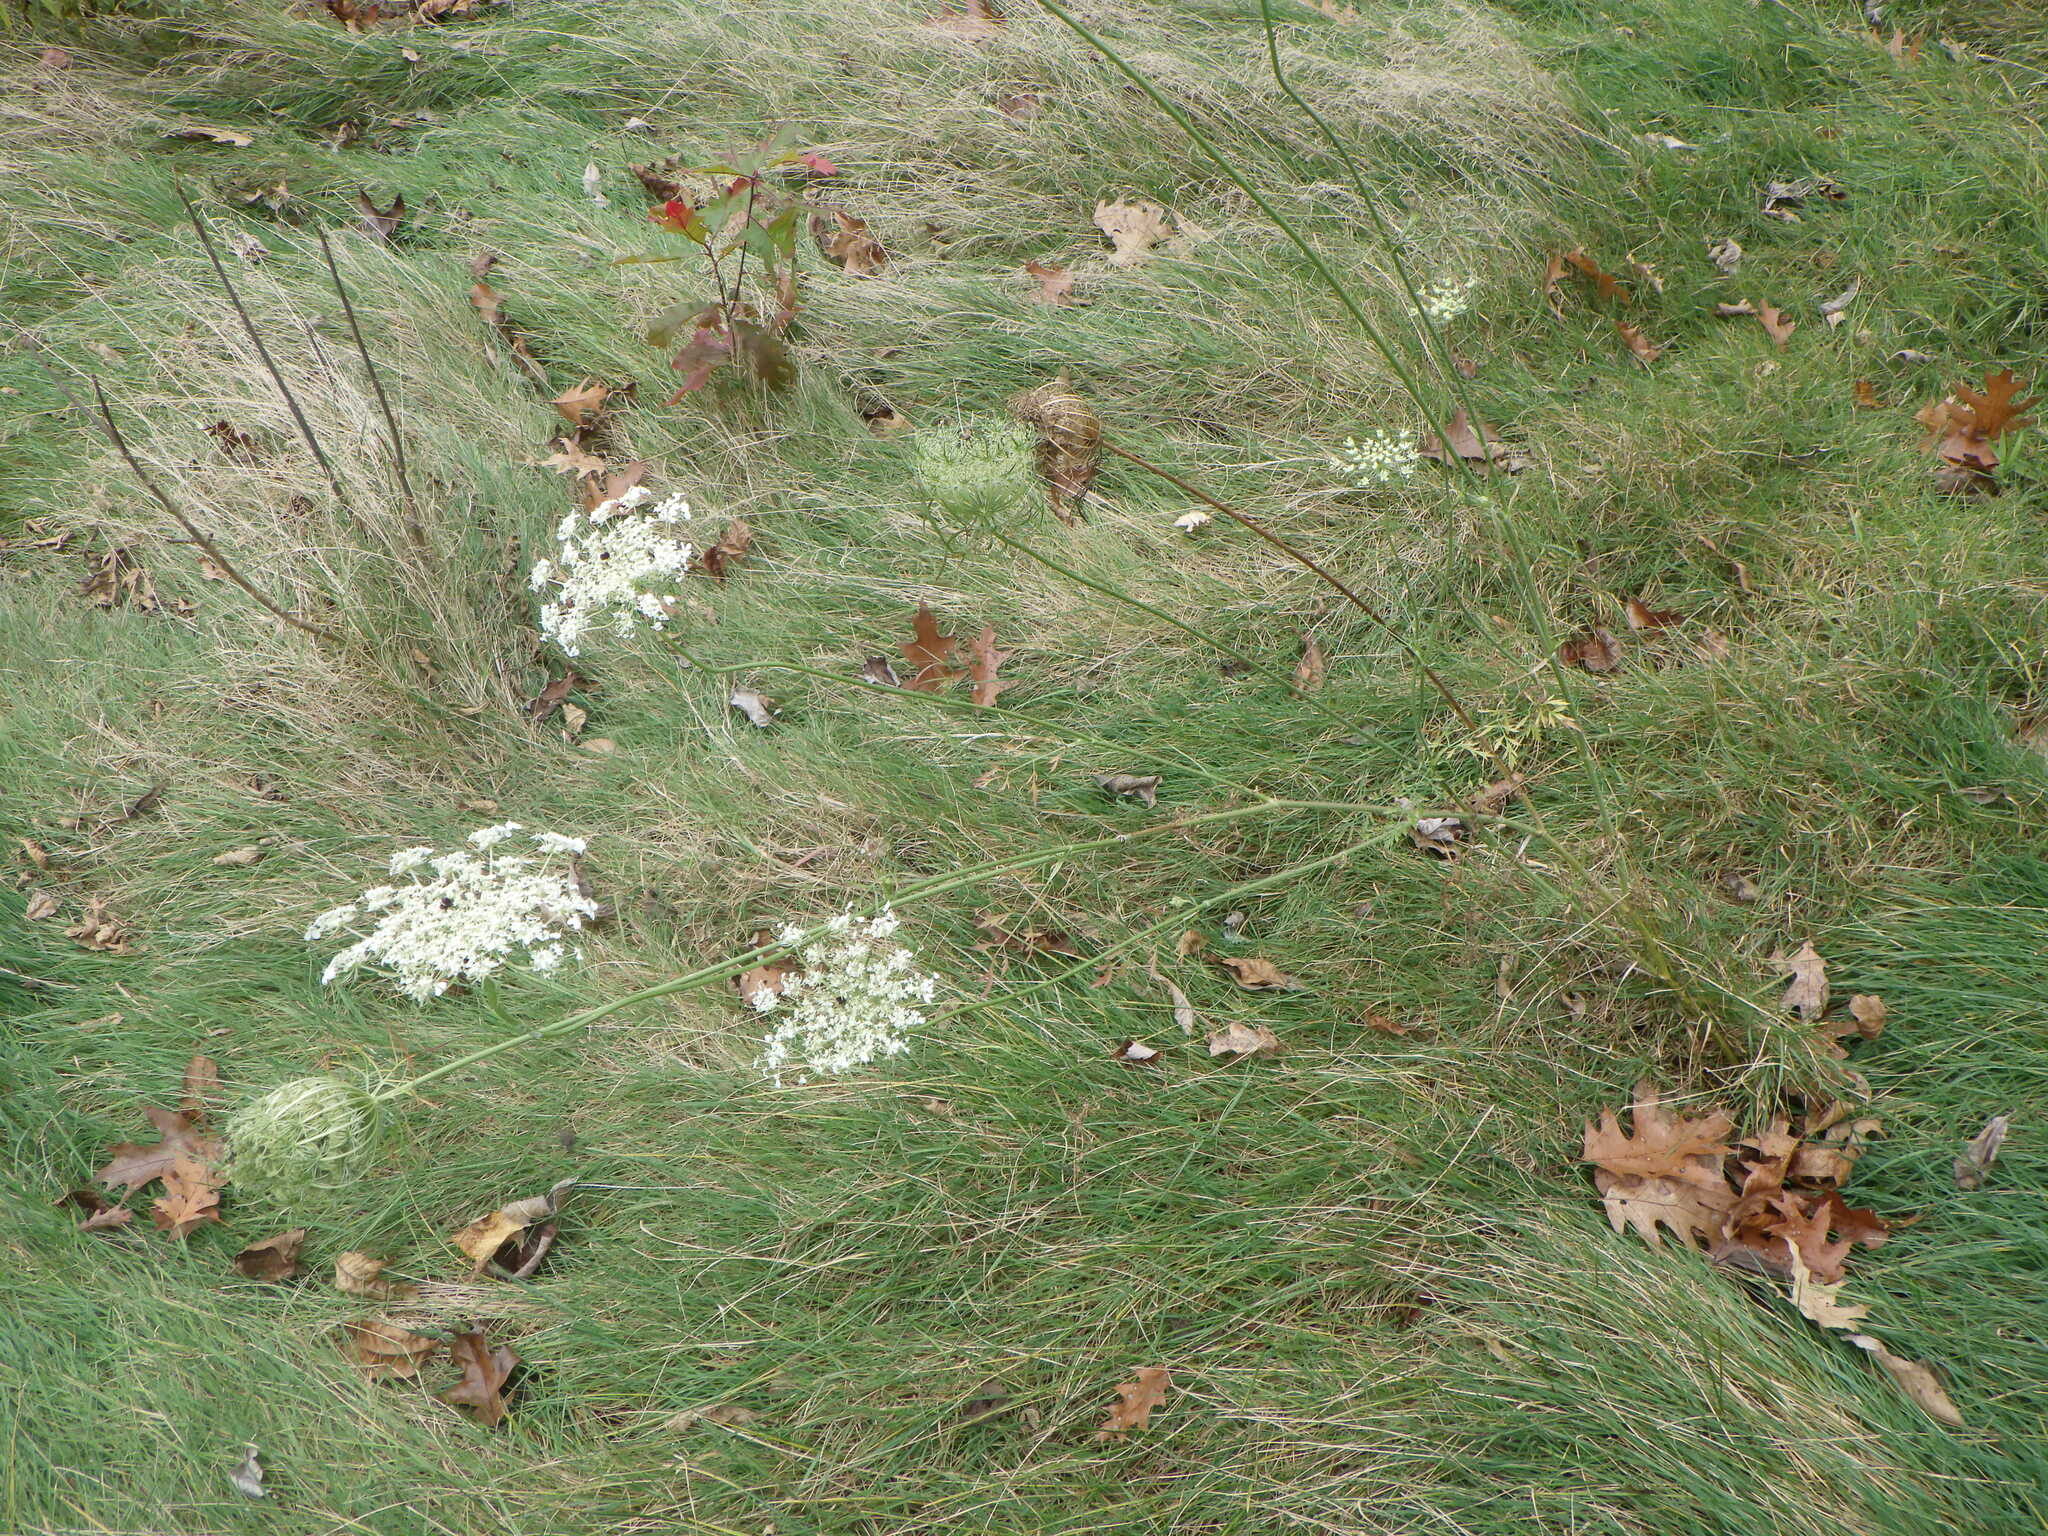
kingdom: Plantae
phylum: Tracheophyta
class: Magnoliopsida
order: Apiales
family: Apiaceae
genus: Daucus
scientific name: Daucus carota
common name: Wild carrot
